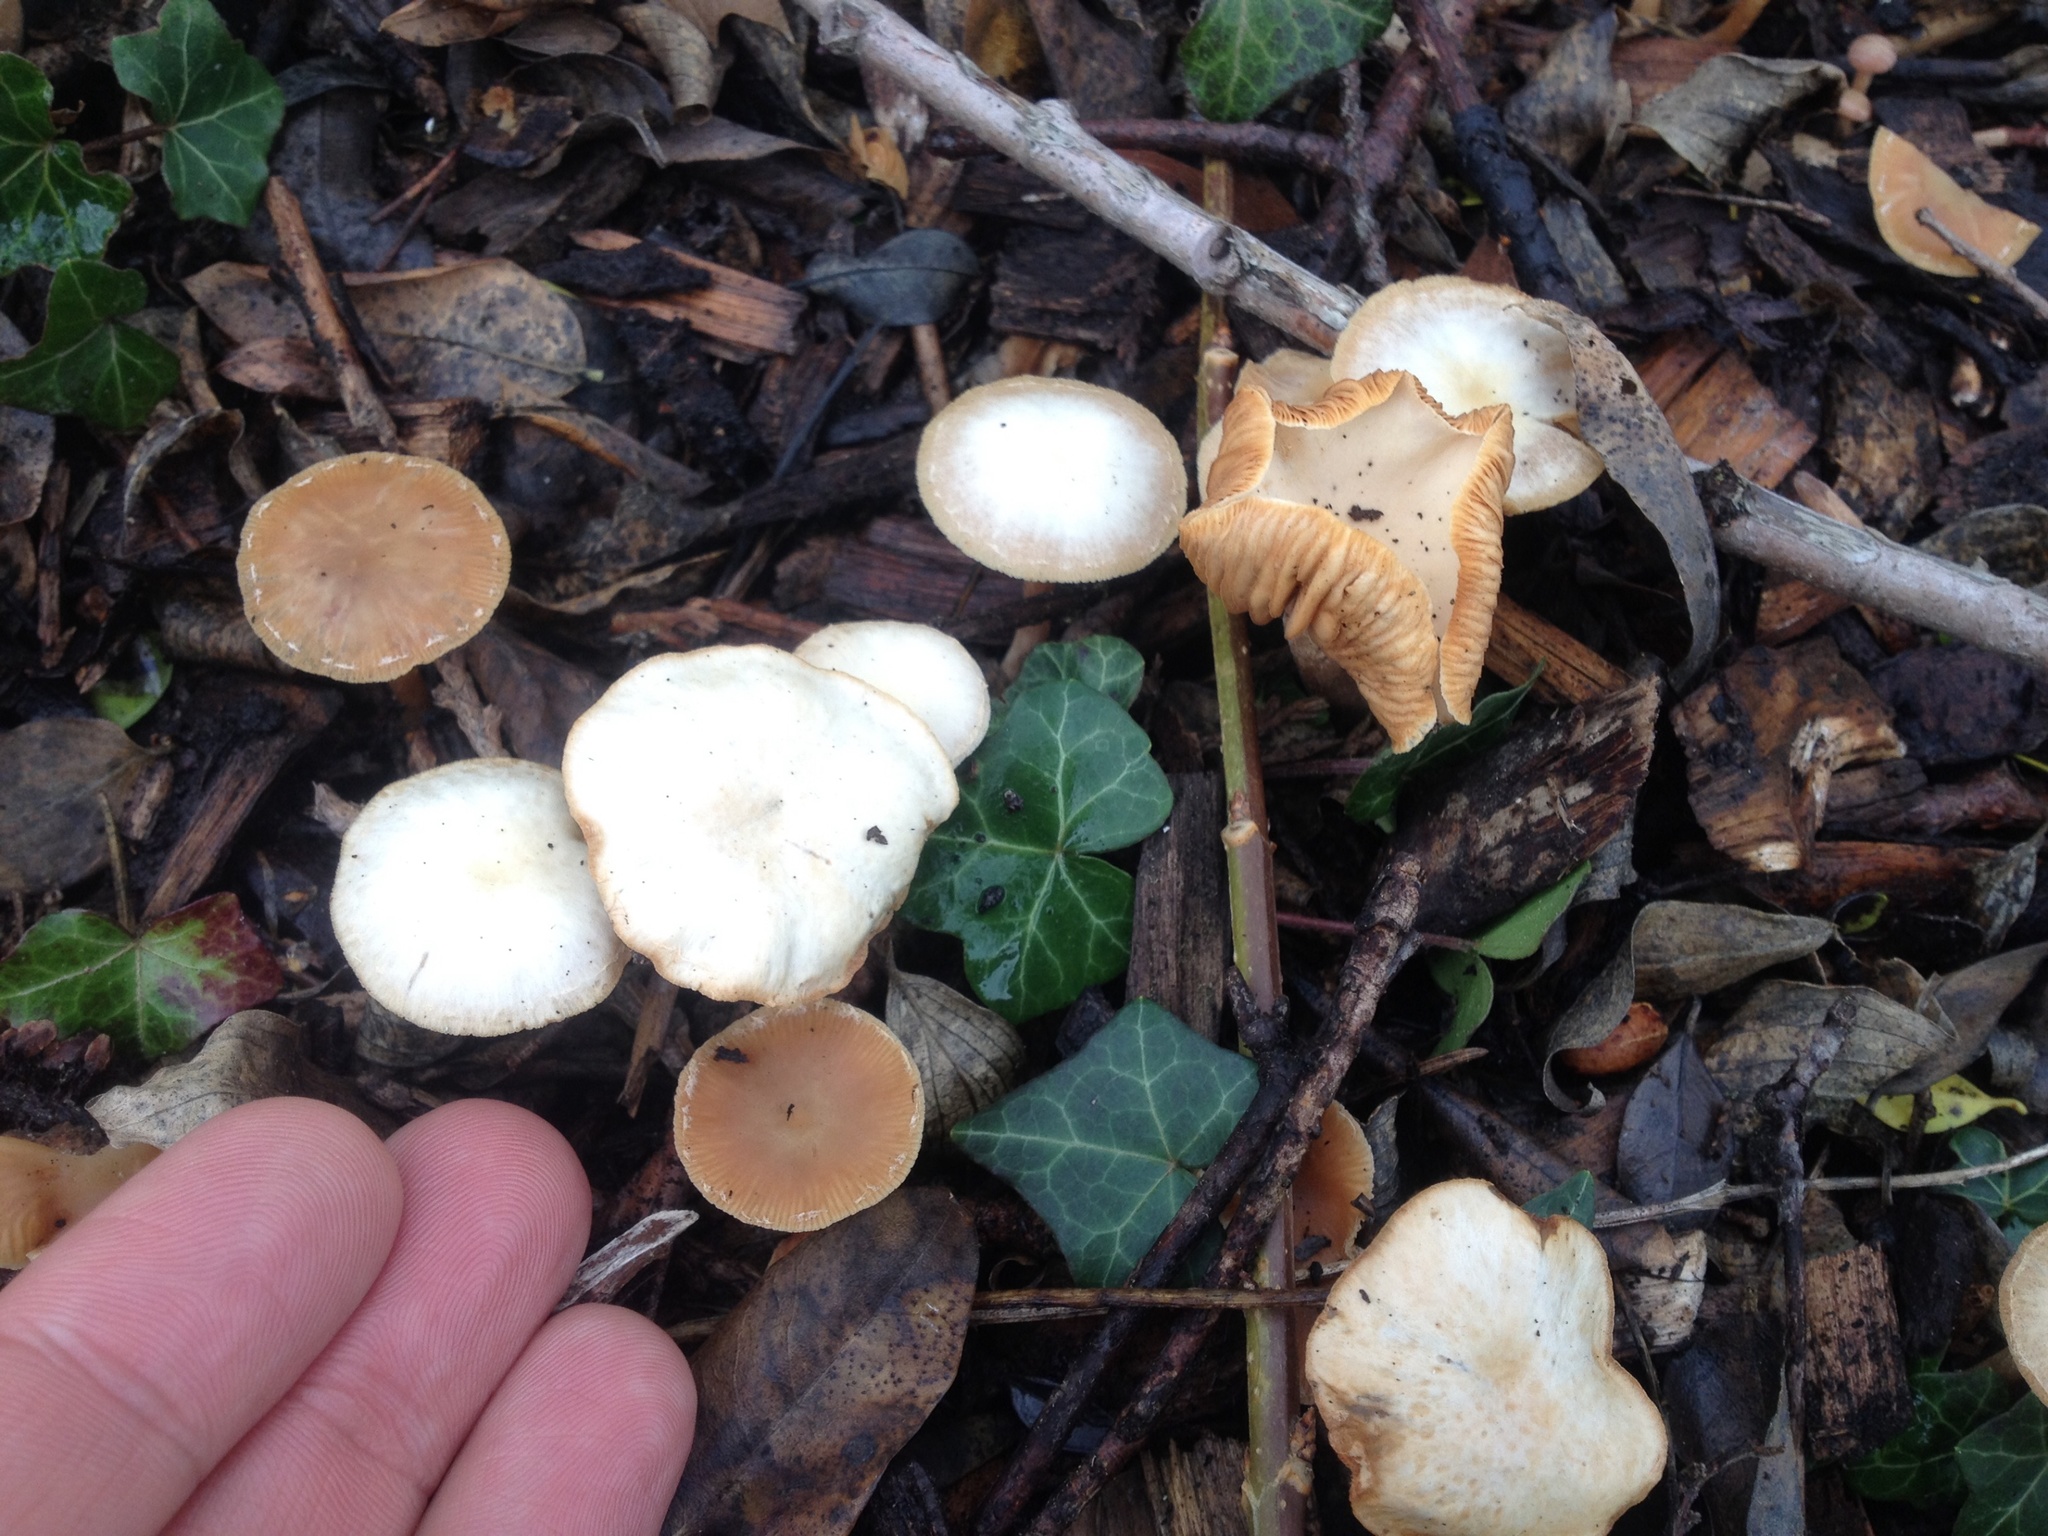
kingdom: Fungi
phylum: Basidiomycota
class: Agaricomycetes
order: Agaricales
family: Tubariaceae
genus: Tubaria
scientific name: Tubaria furfuracea
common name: Scurfy twiglet
